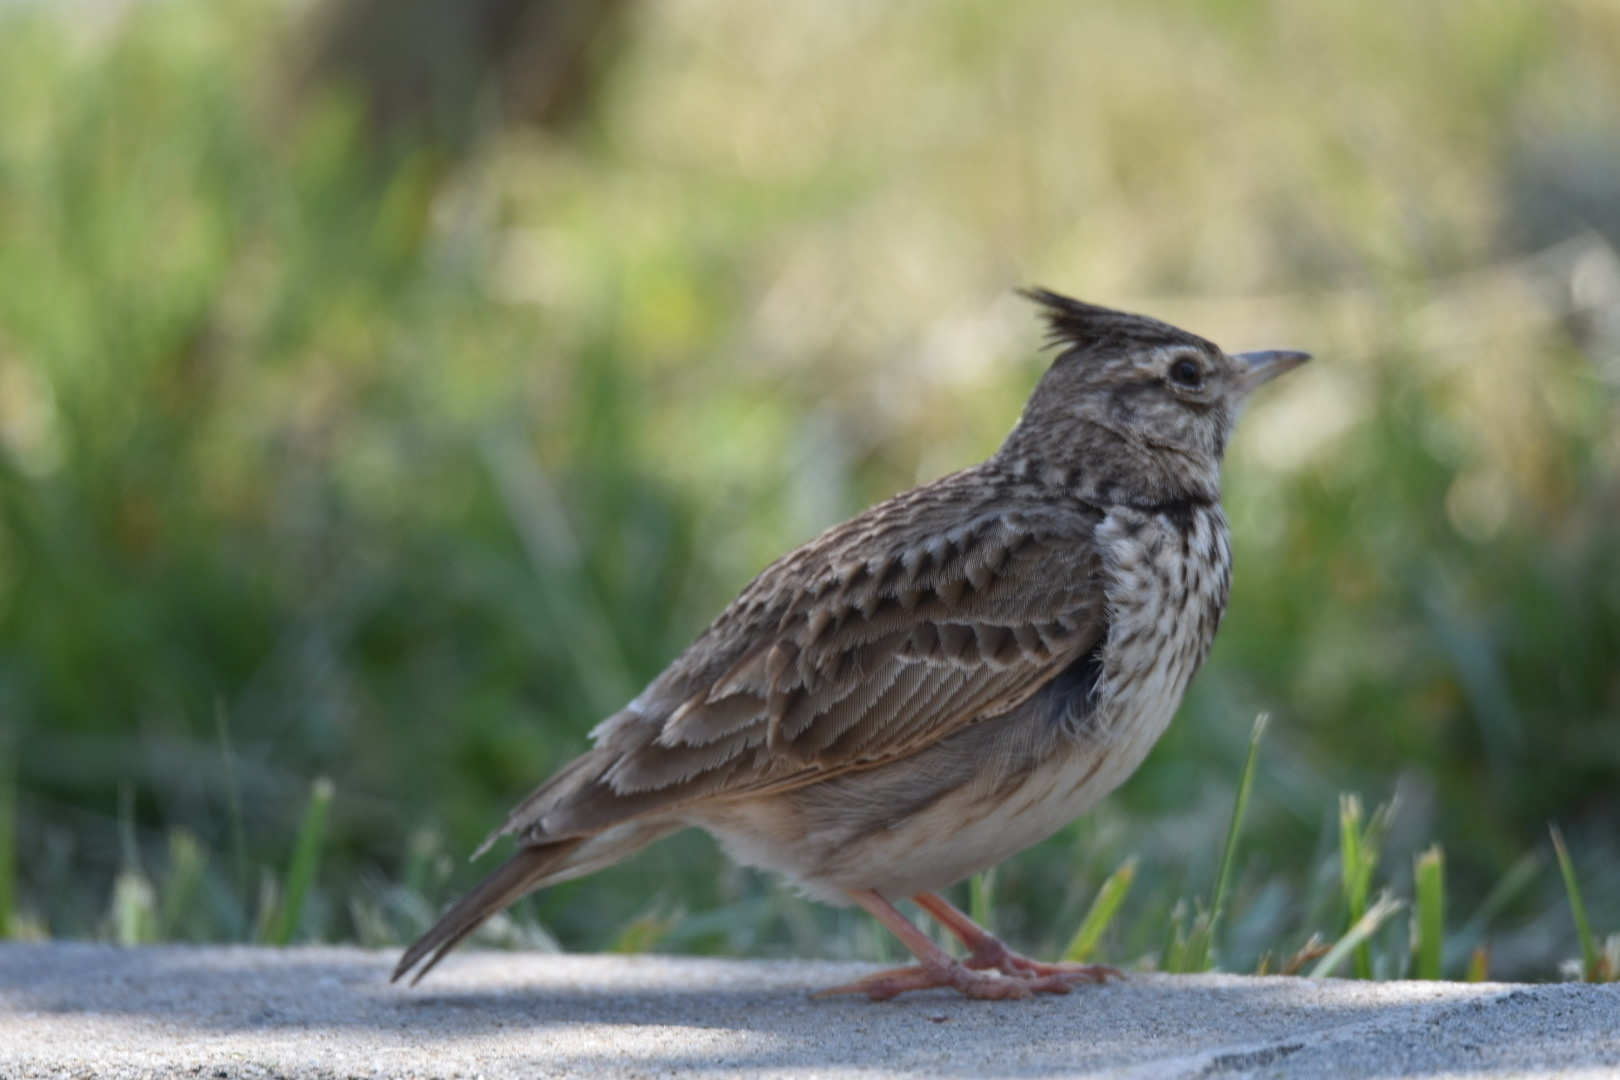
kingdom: Animalia
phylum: Chordata
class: Aves
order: Passeriformes
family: Alaudidae
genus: Galerida
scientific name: Galerida cristata
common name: Crested lark
